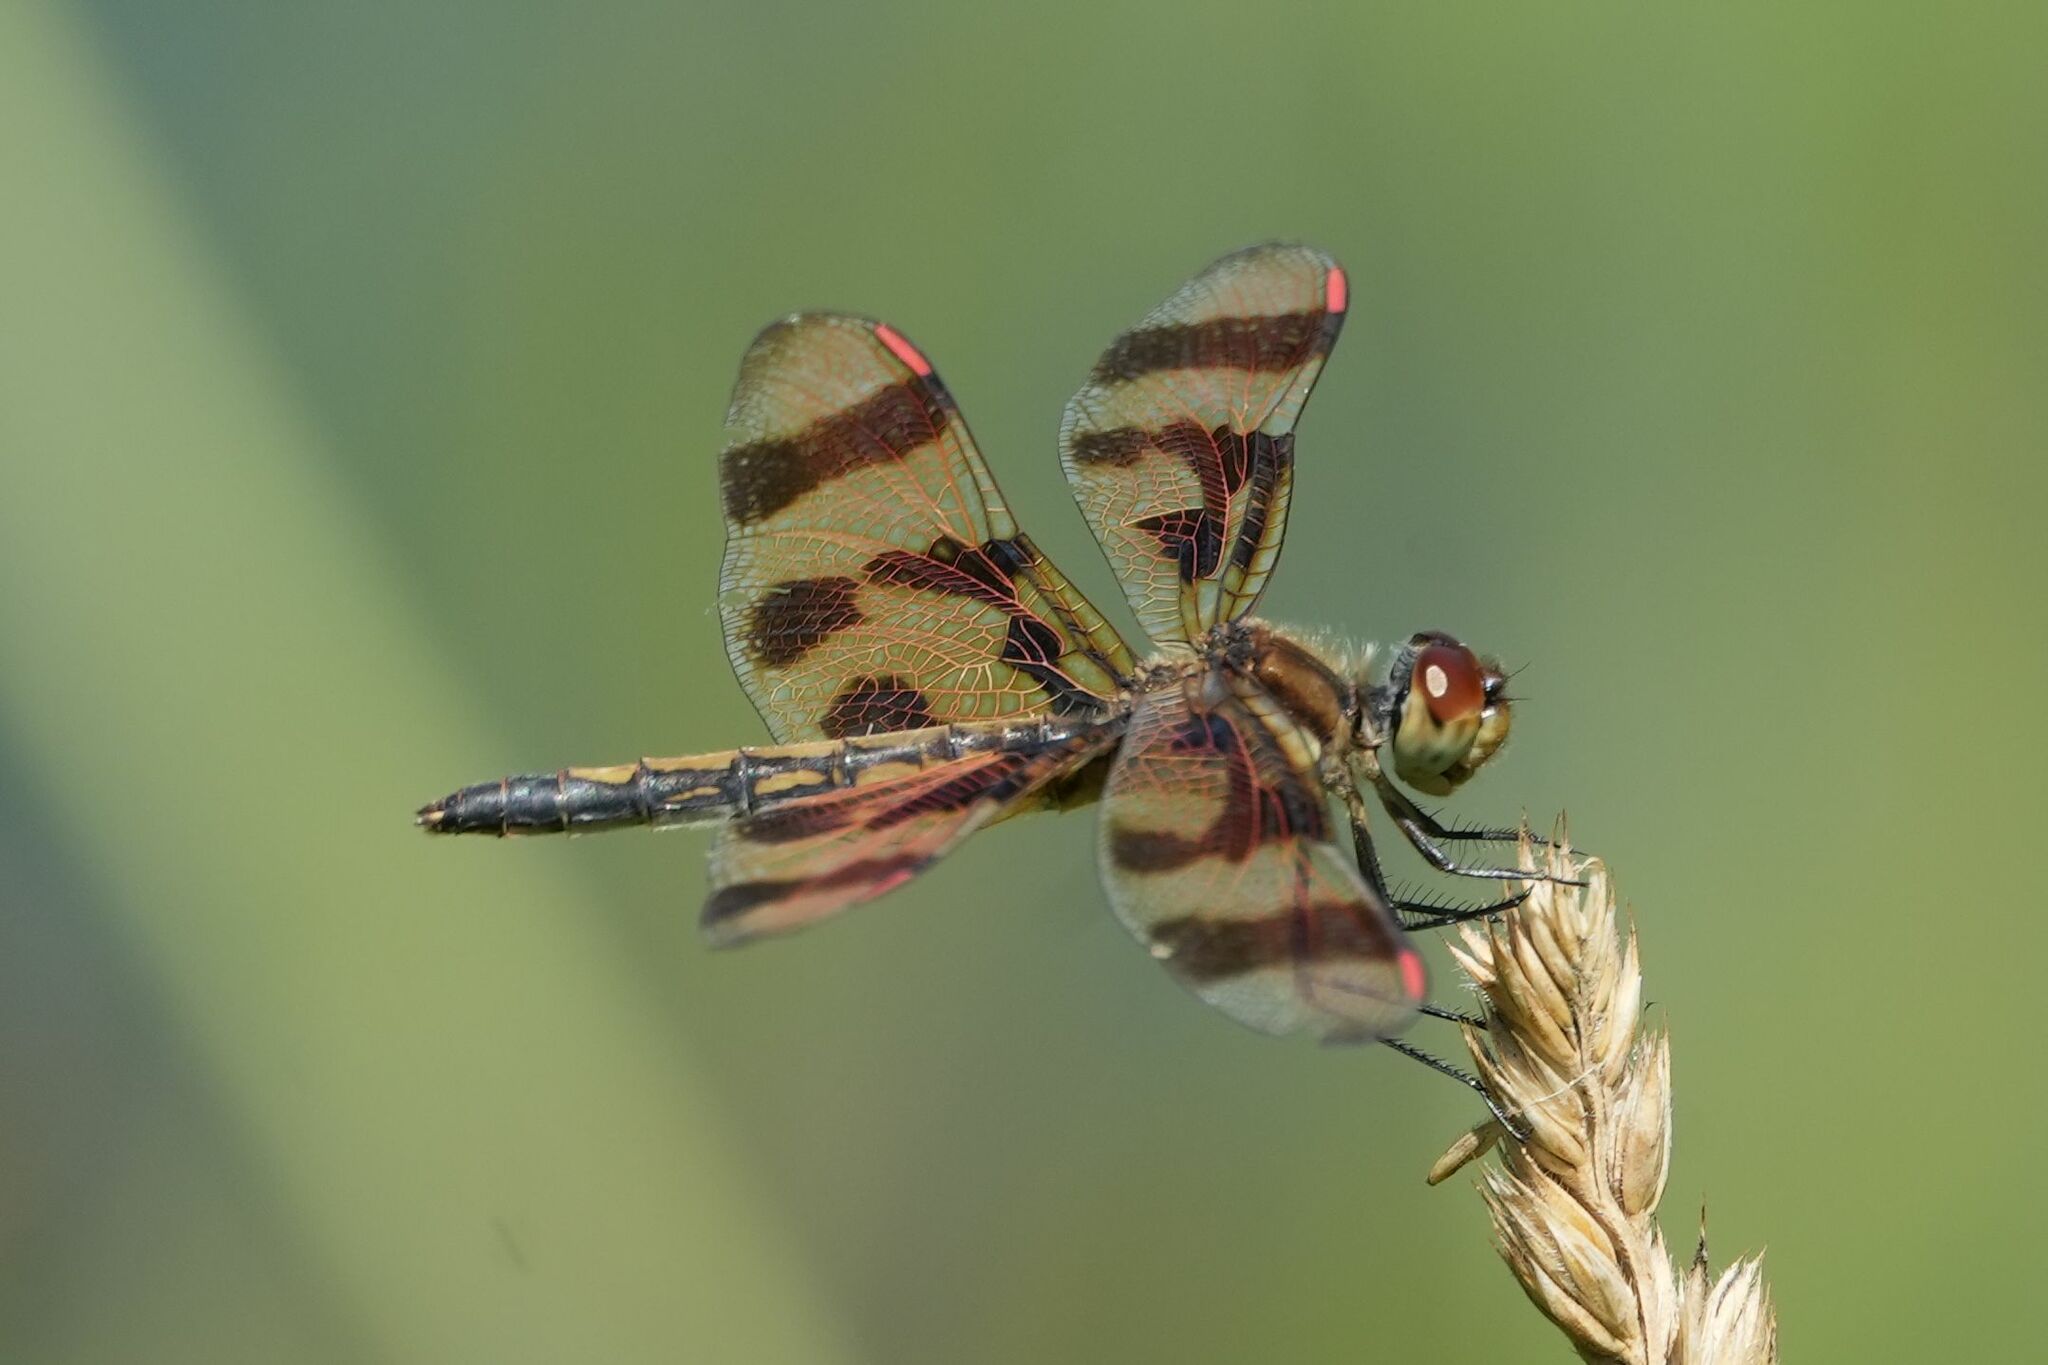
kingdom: Animalia
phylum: Arthropoda
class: Insecta
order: Odonata
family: Libellulidae
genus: Celithemis
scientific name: Celithemis eponina
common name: Halloween pennant
